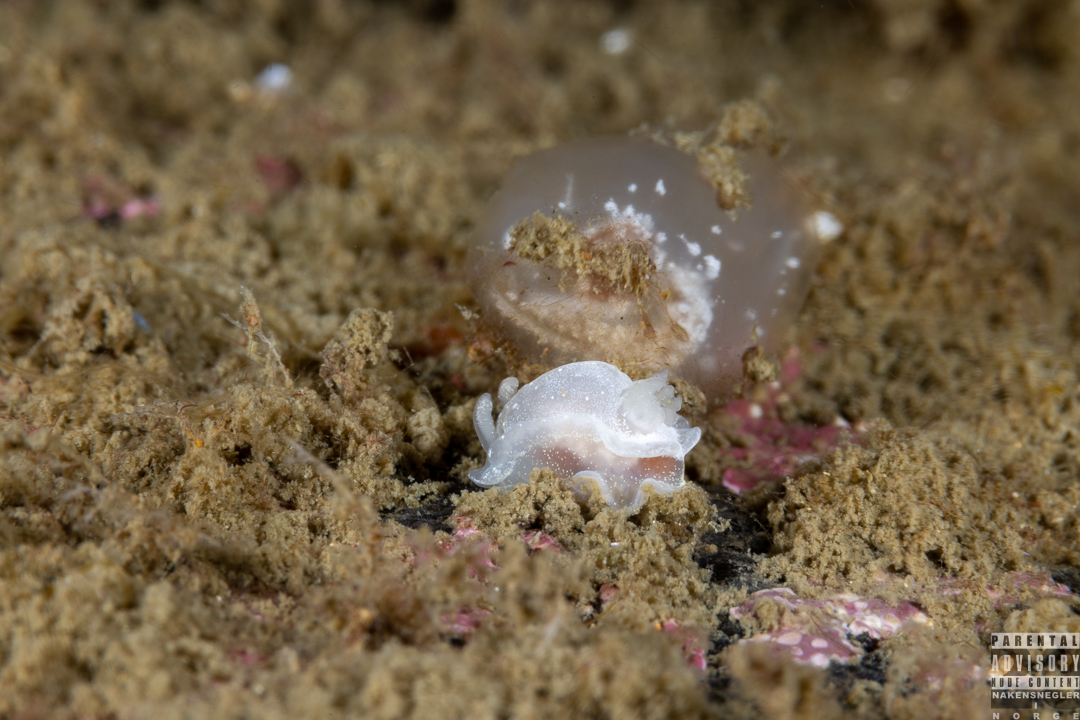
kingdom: Animalia
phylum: Mollusca
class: Gastropoda
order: Nudibranchia
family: Goniodorididae
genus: Okenia
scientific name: Okenia
